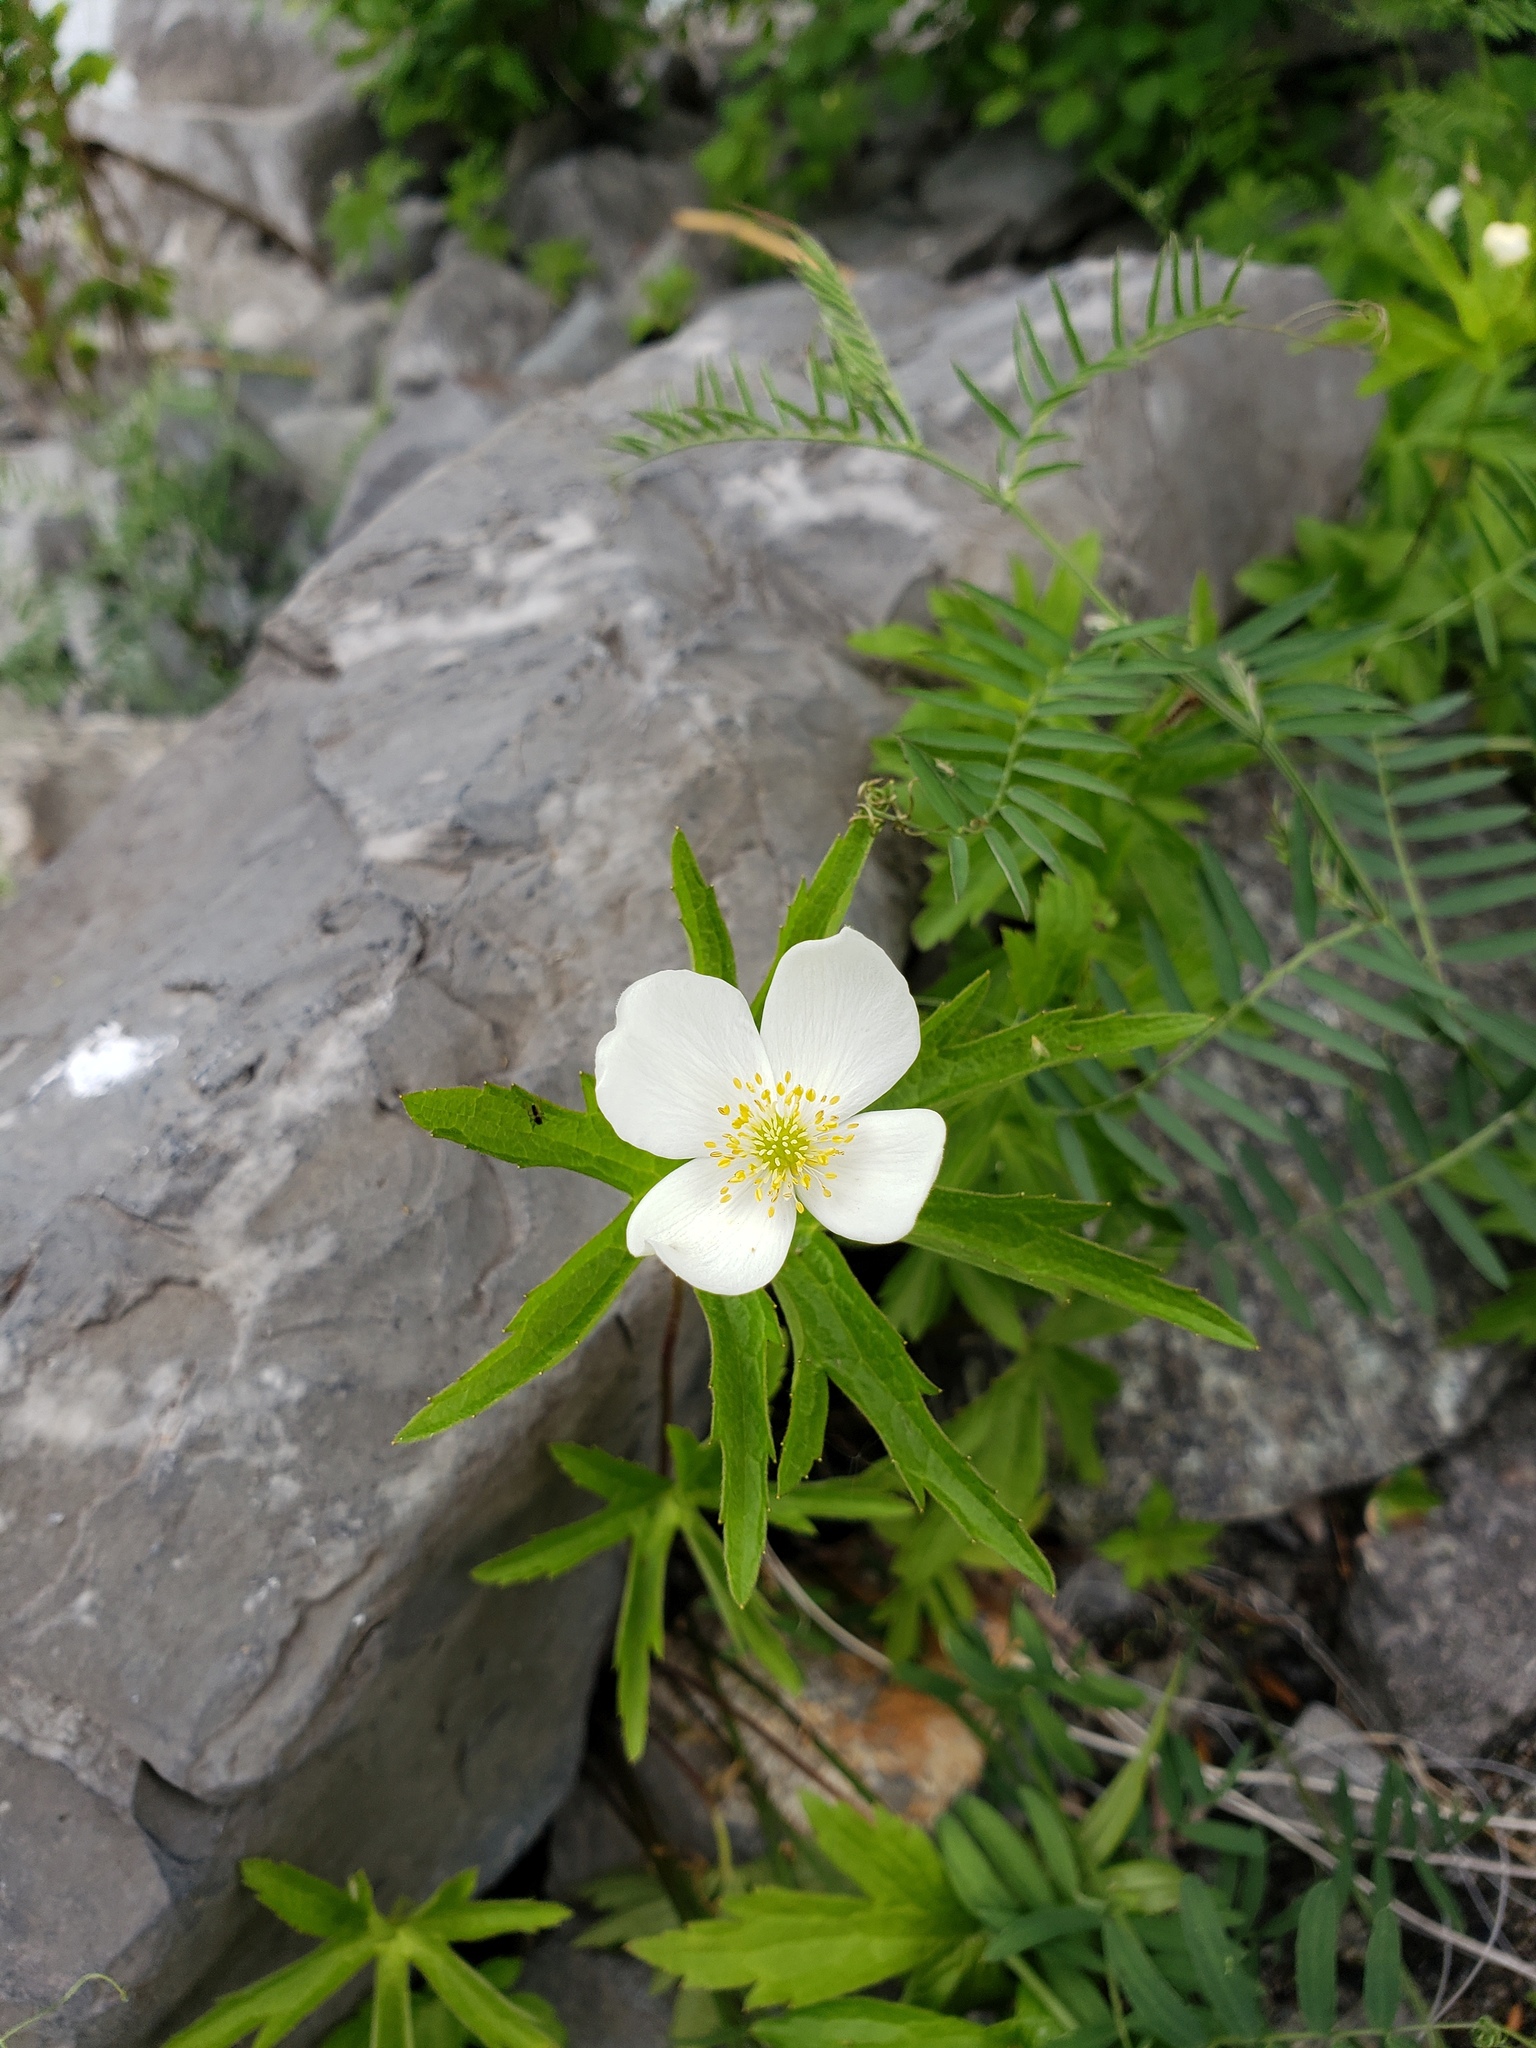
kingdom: Plantae
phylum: Tracheophyta
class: Magnoliopsida
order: Ranunculales
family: Ranunculaceae
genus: Anemonastrum
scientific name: Anemonastrum canadense
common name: Canada anemone
